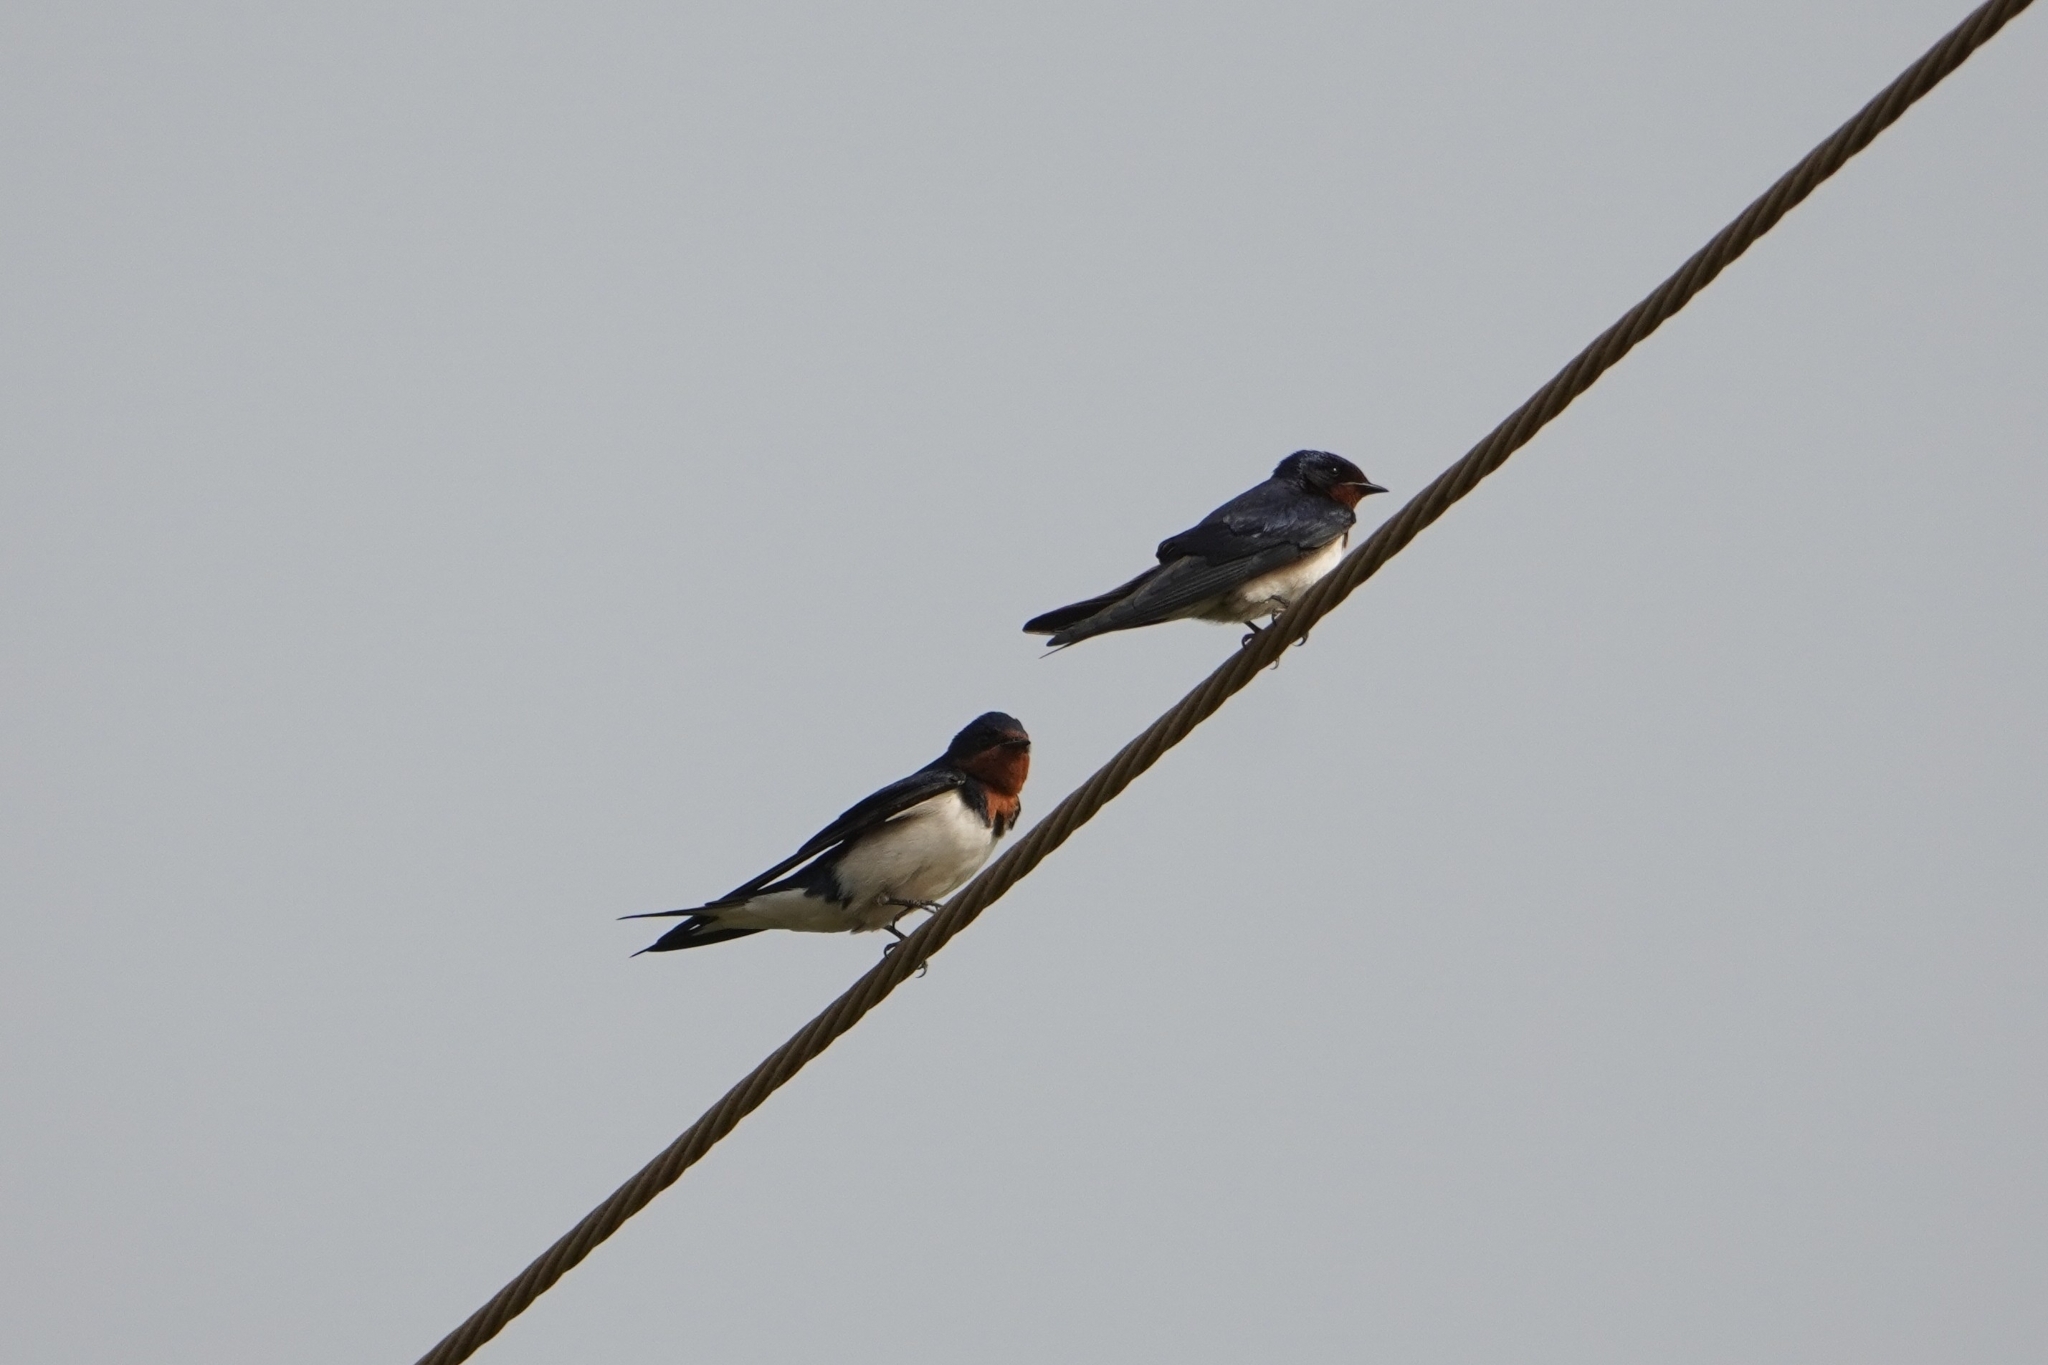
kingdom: Animalia
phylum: Chordata
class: Aves
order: Passeriformes
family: Hirundinidae
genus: Hirundo
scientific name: Hirundo lucida
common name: Red-chested swallow
